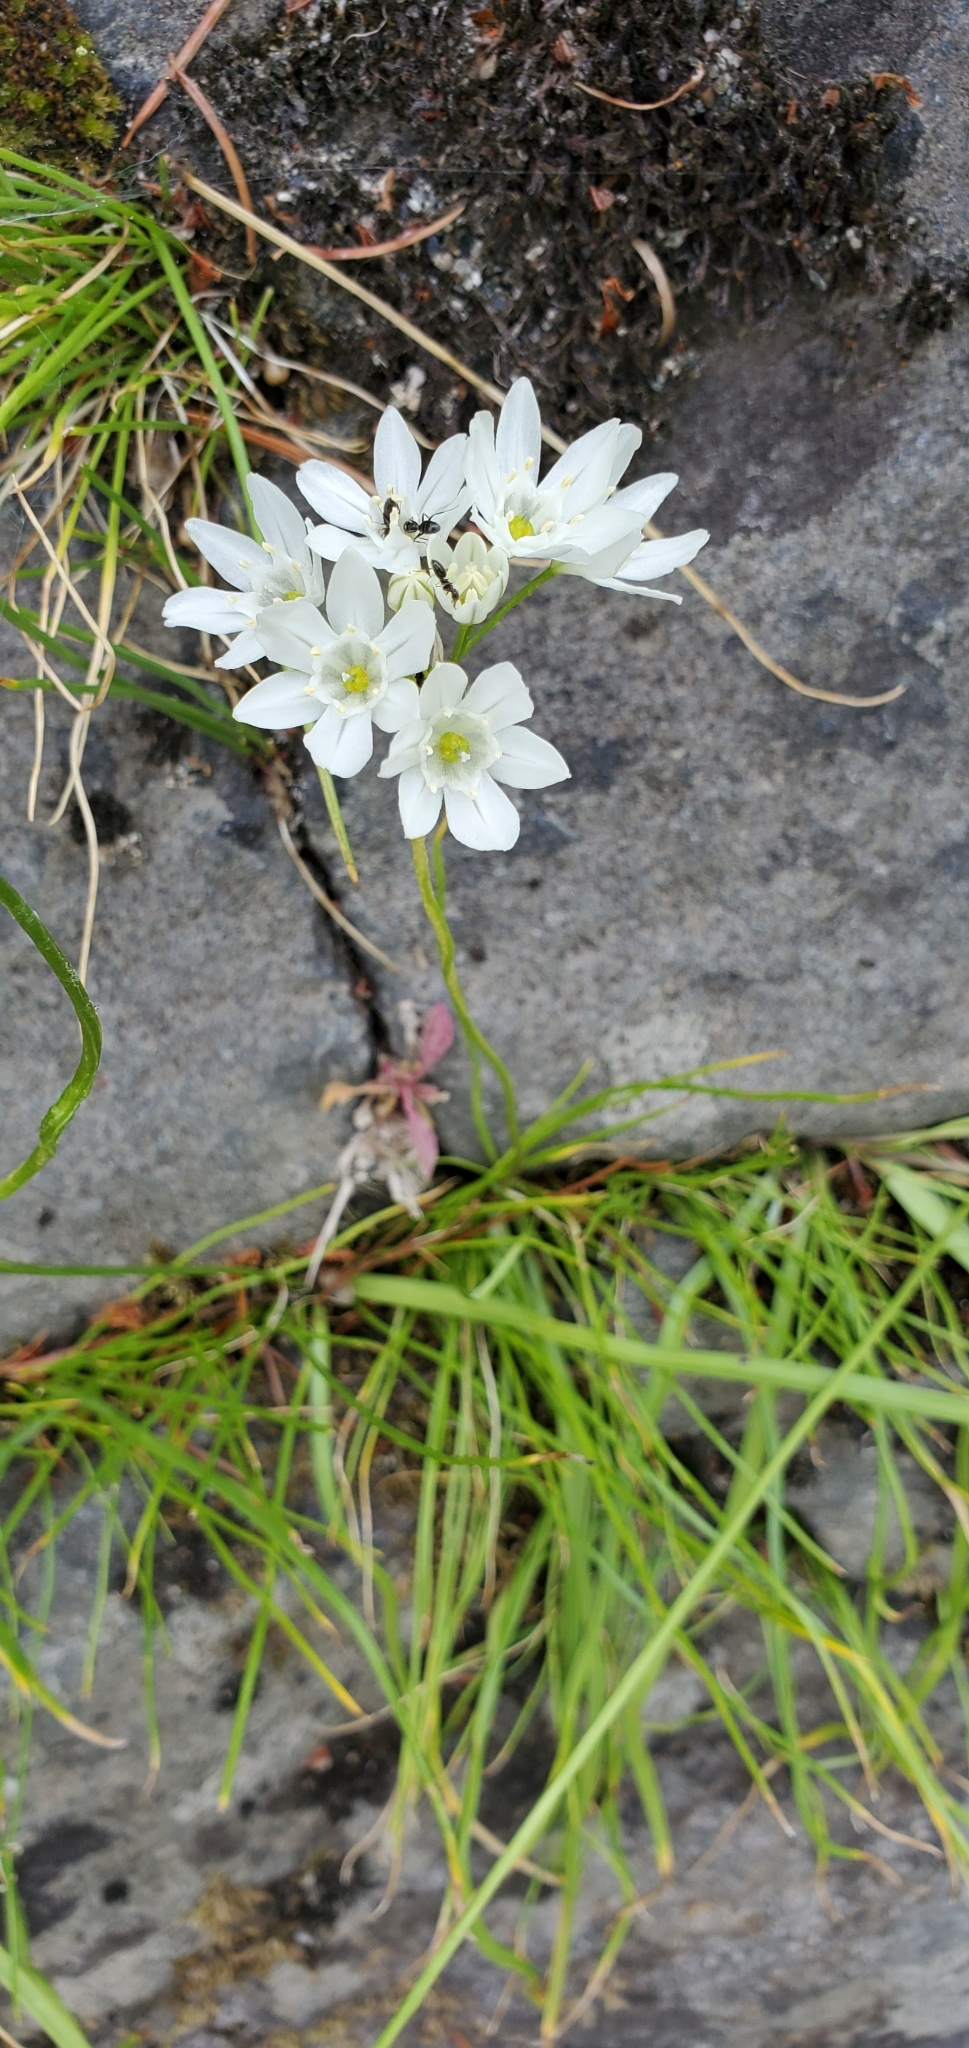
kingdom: Plantae
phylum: Tracheophyta
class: Liliopsida
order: Asparagales
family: Asparagaceae
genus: Triteleia
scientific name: Triteleia hyacinthina
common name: White brodiaea
